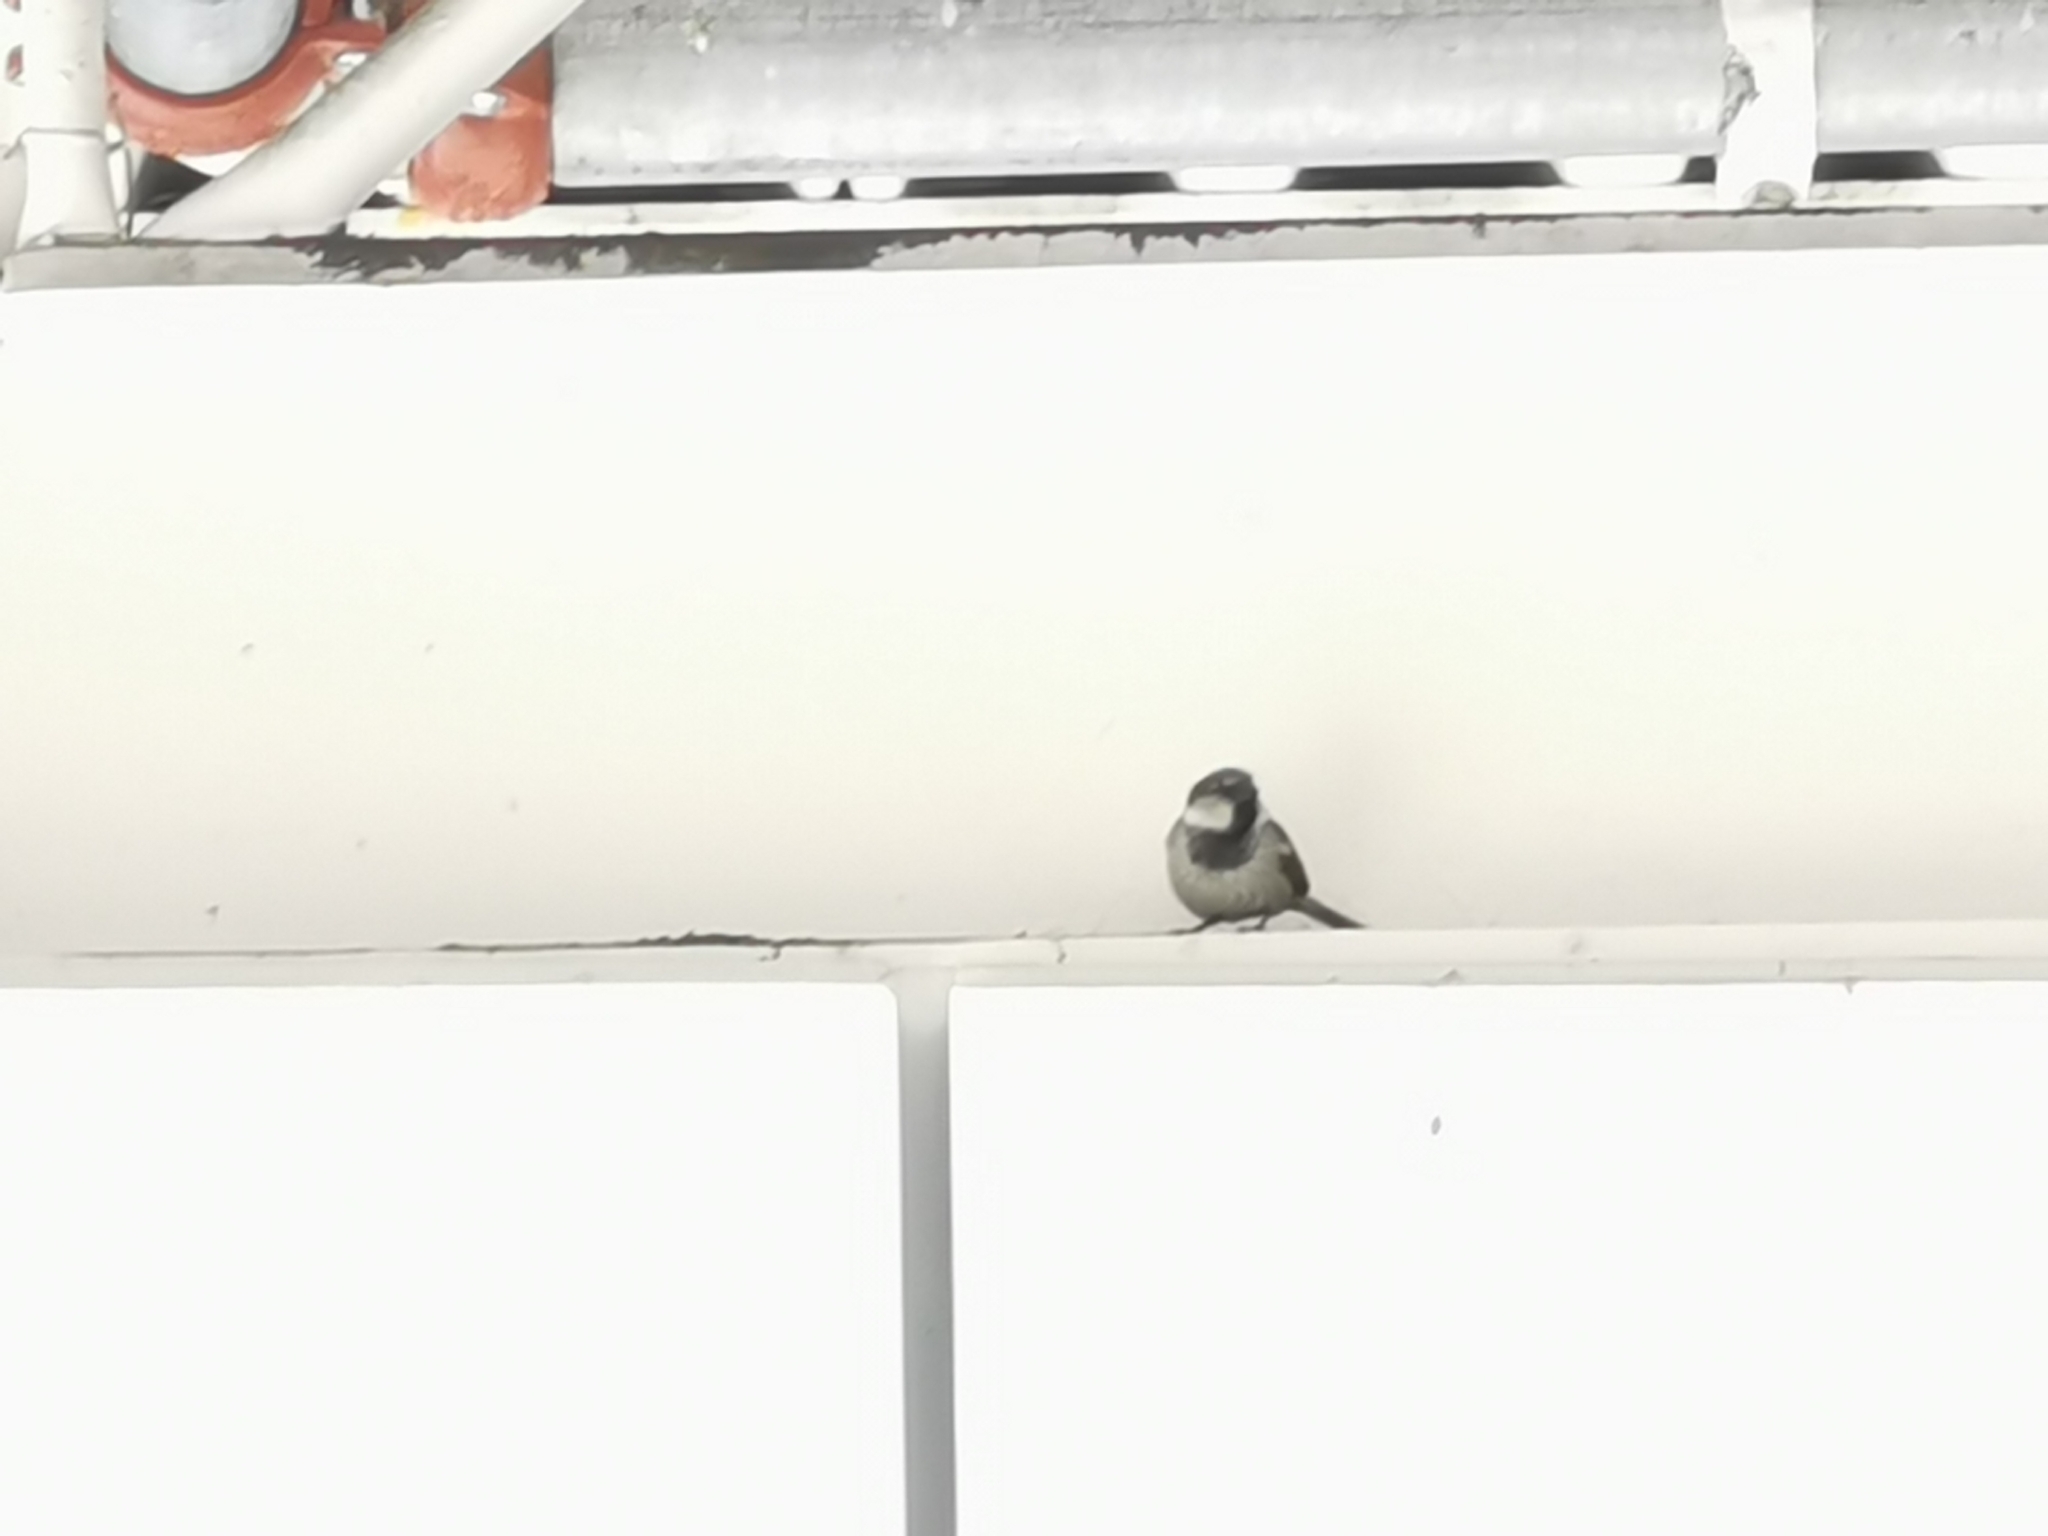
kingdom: Animalia
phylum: Chordata
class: Aves
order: Passeriformes
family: Passeridae
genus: Passer
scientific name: Passer domesticus
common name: House sparrow
